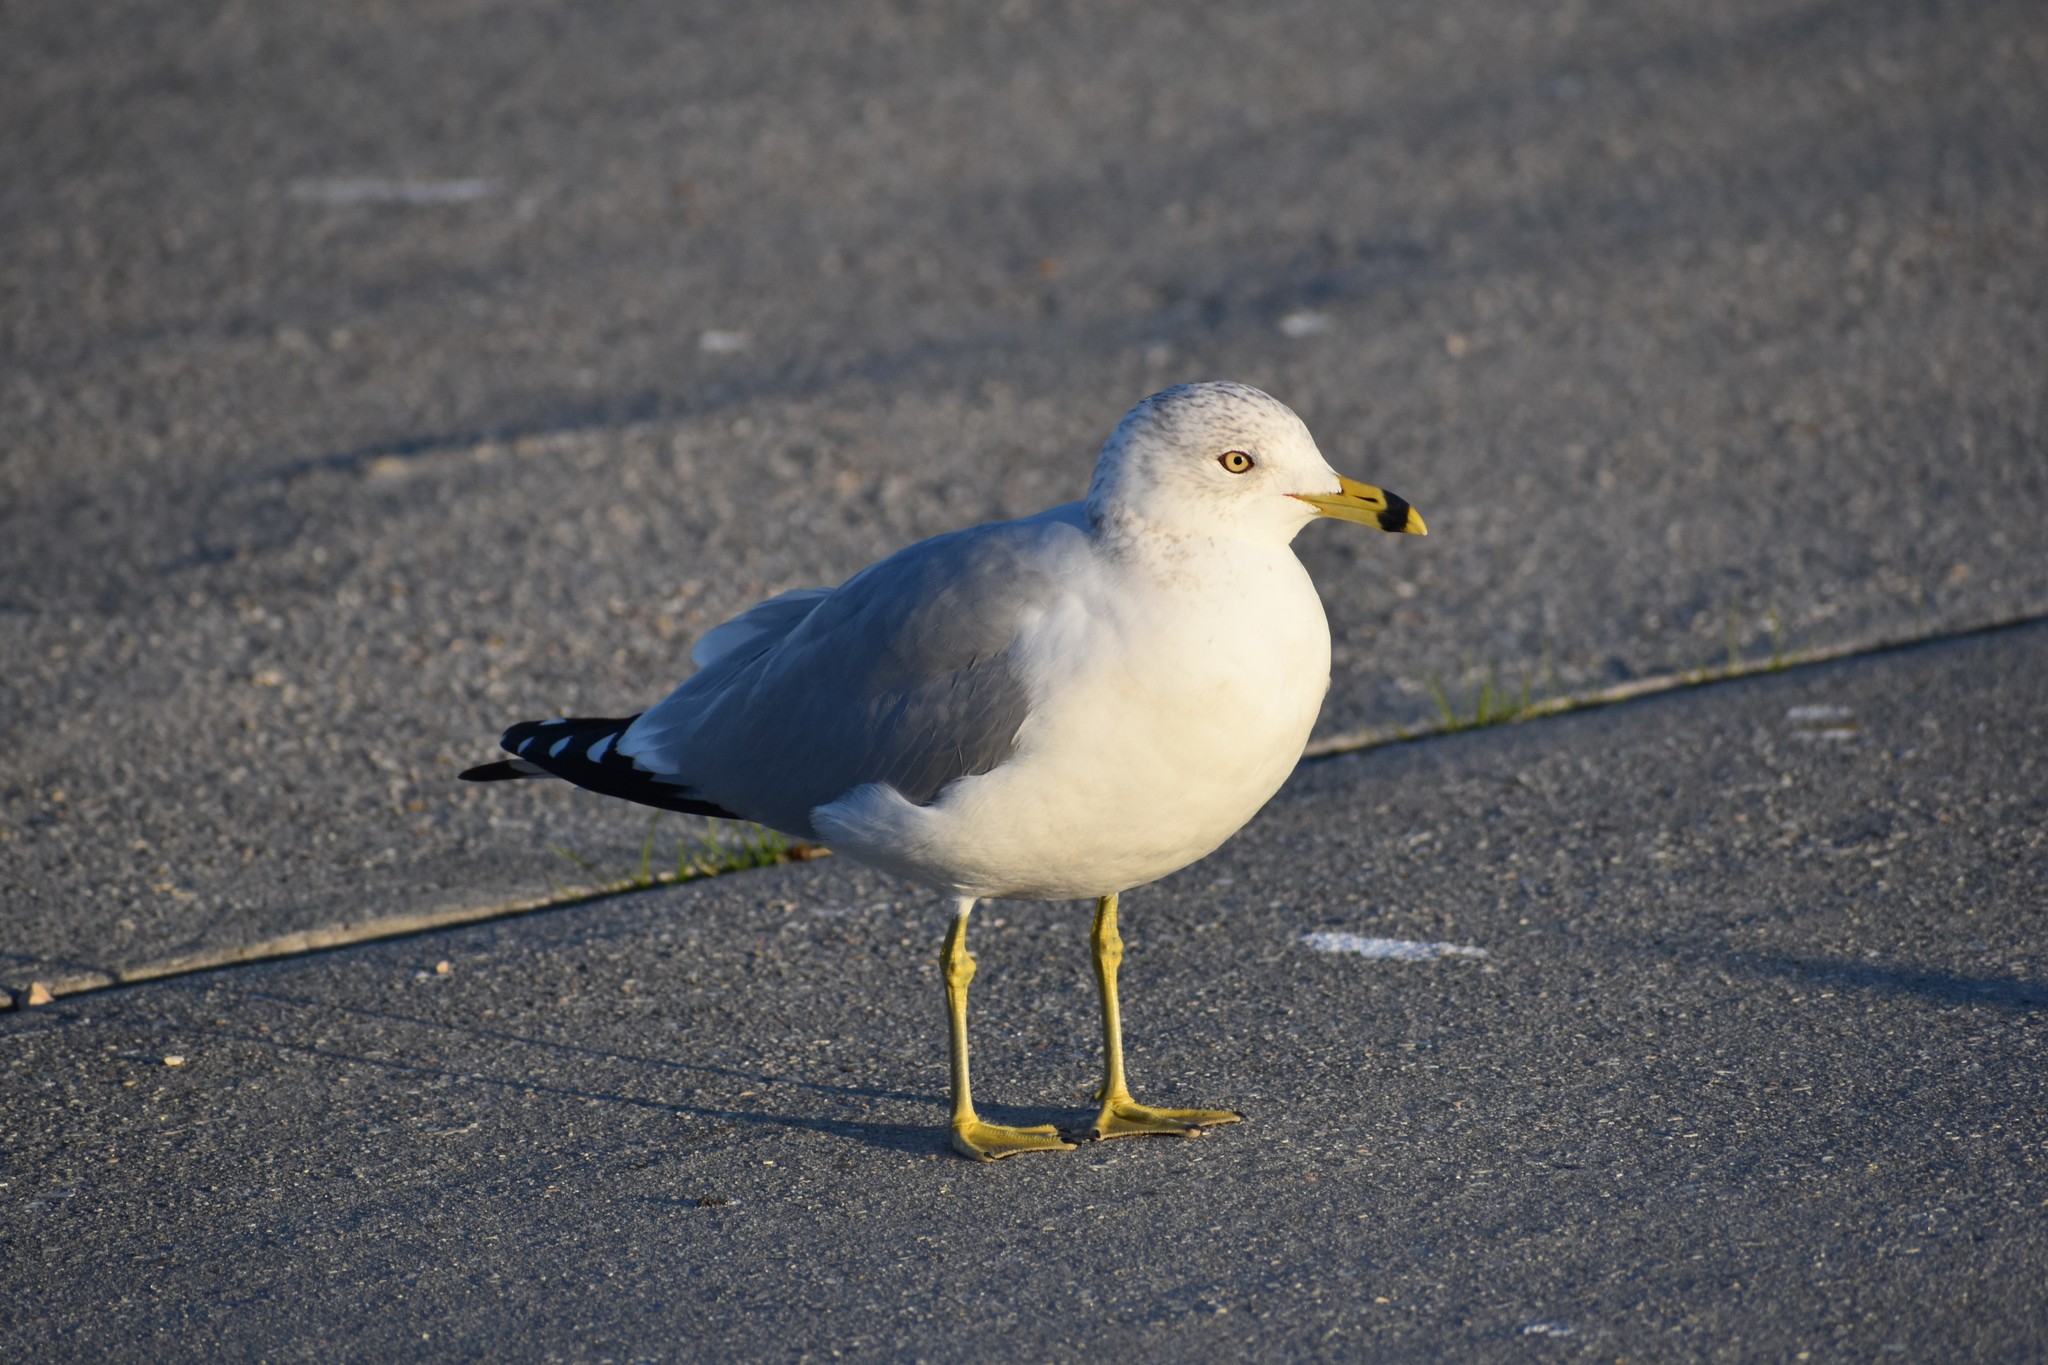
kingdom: Animalia
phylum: Chordata
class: Aves
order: Charadriiformes
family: Laridae
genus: Larus
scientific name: Larus delawarensis
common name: Ring-billed gull
